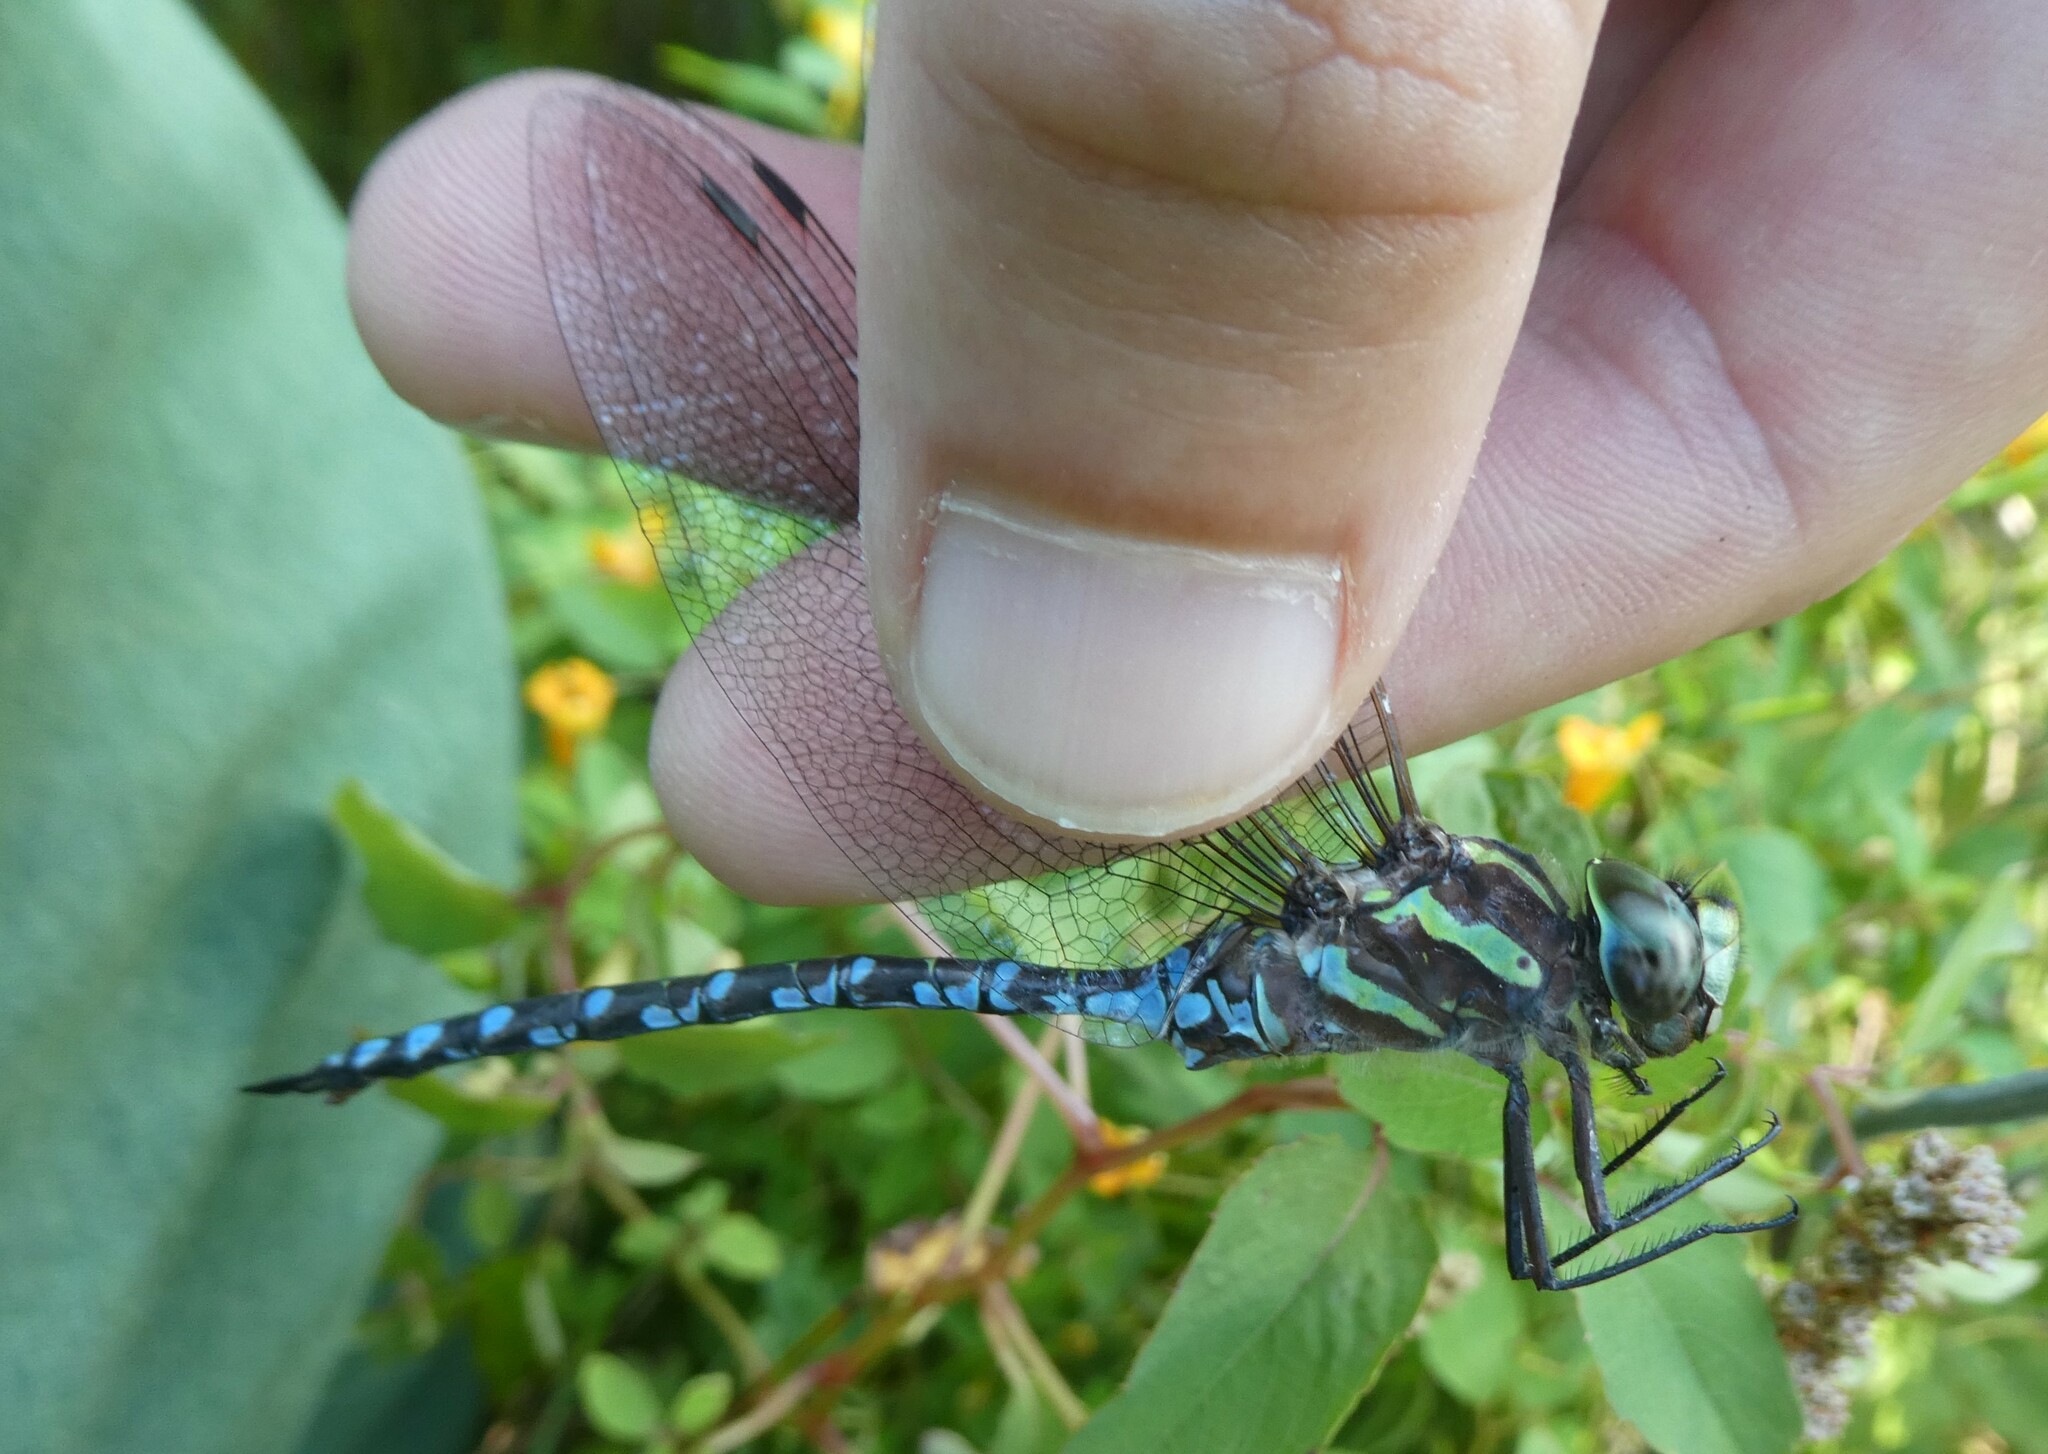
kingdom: Animalia
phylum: Arthropoda
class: Insecta
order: Odonata
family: Aeshnidae
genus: Aeshna
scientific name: Aeshna verticalis
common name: Green-striped darner
